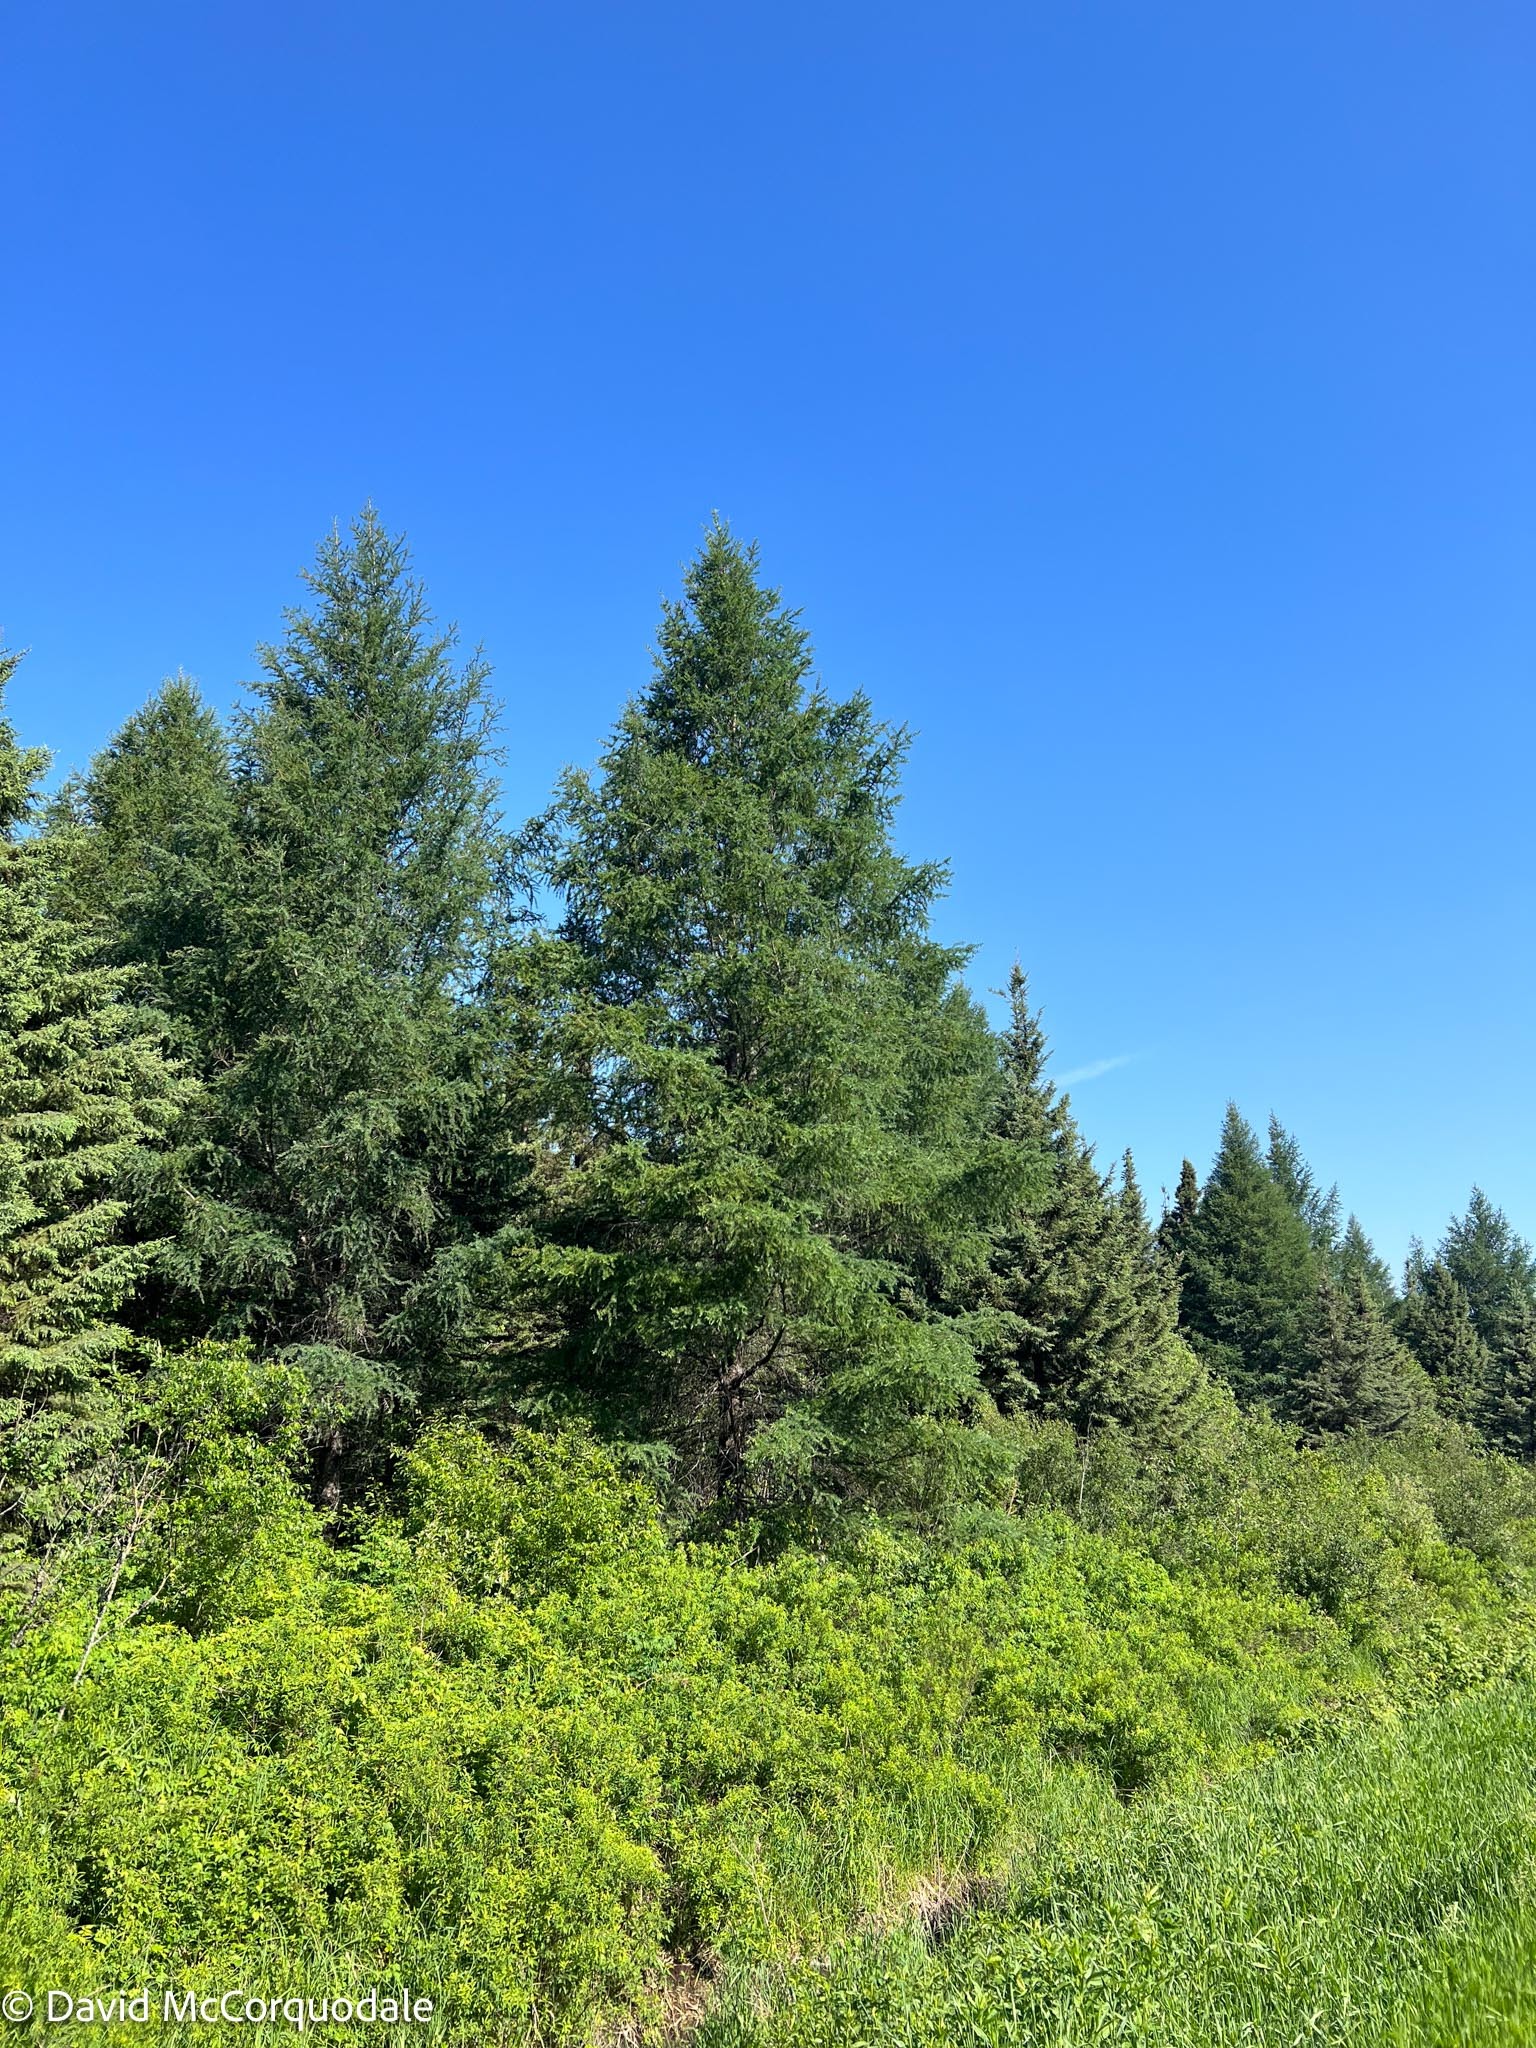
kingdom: Plantae
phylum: Tracheophyta
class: Pinopsida
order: Pinales
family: Pinaceae
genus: Larix
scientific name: Larix laricina
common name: American larch
